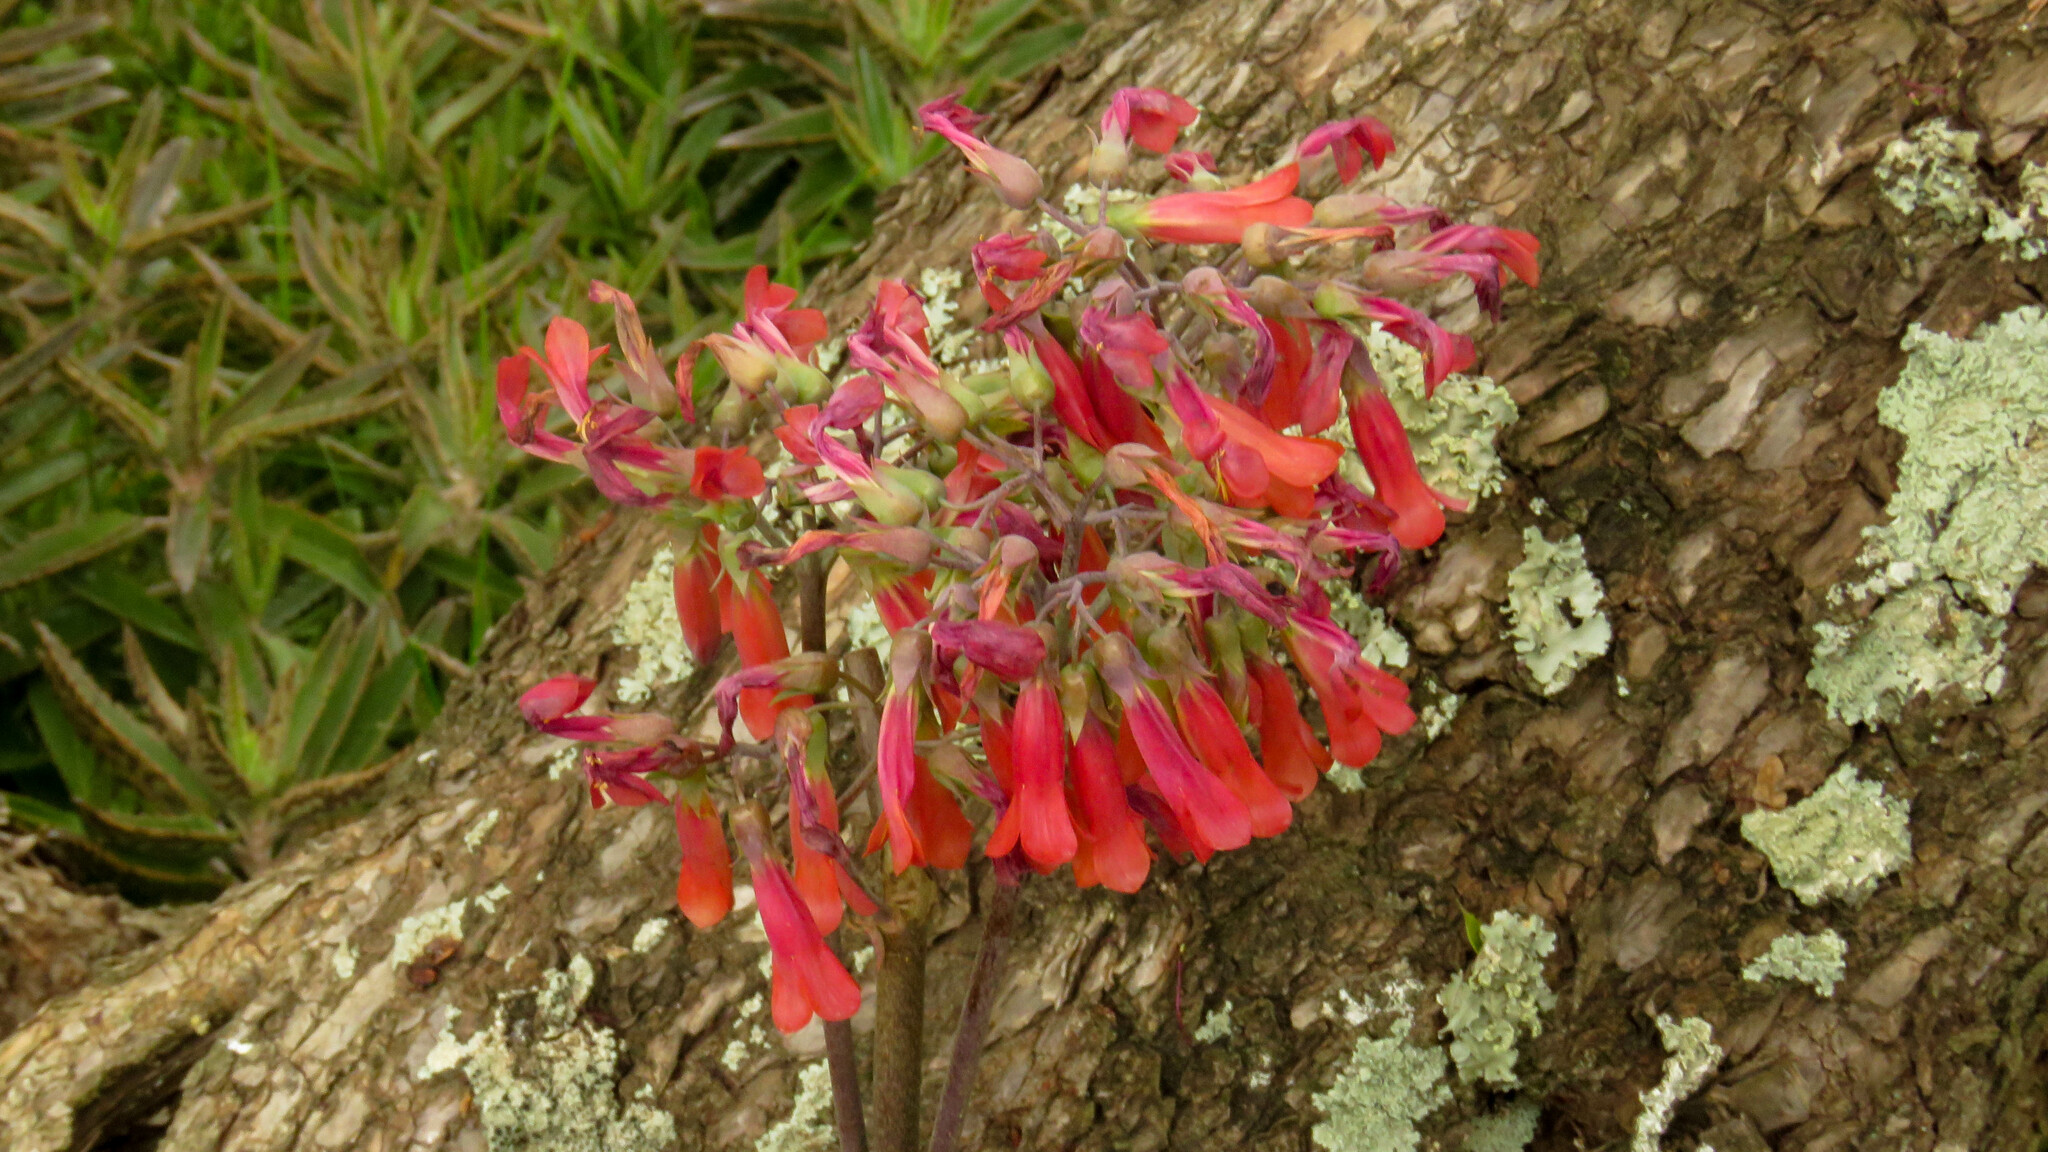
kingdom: Plantae
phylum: Tracheophyta
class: Magnoliopsida
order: Saxifragales
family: Crassulaceae
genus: Kalanchoe
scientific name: Kalanchoe houghtonii
